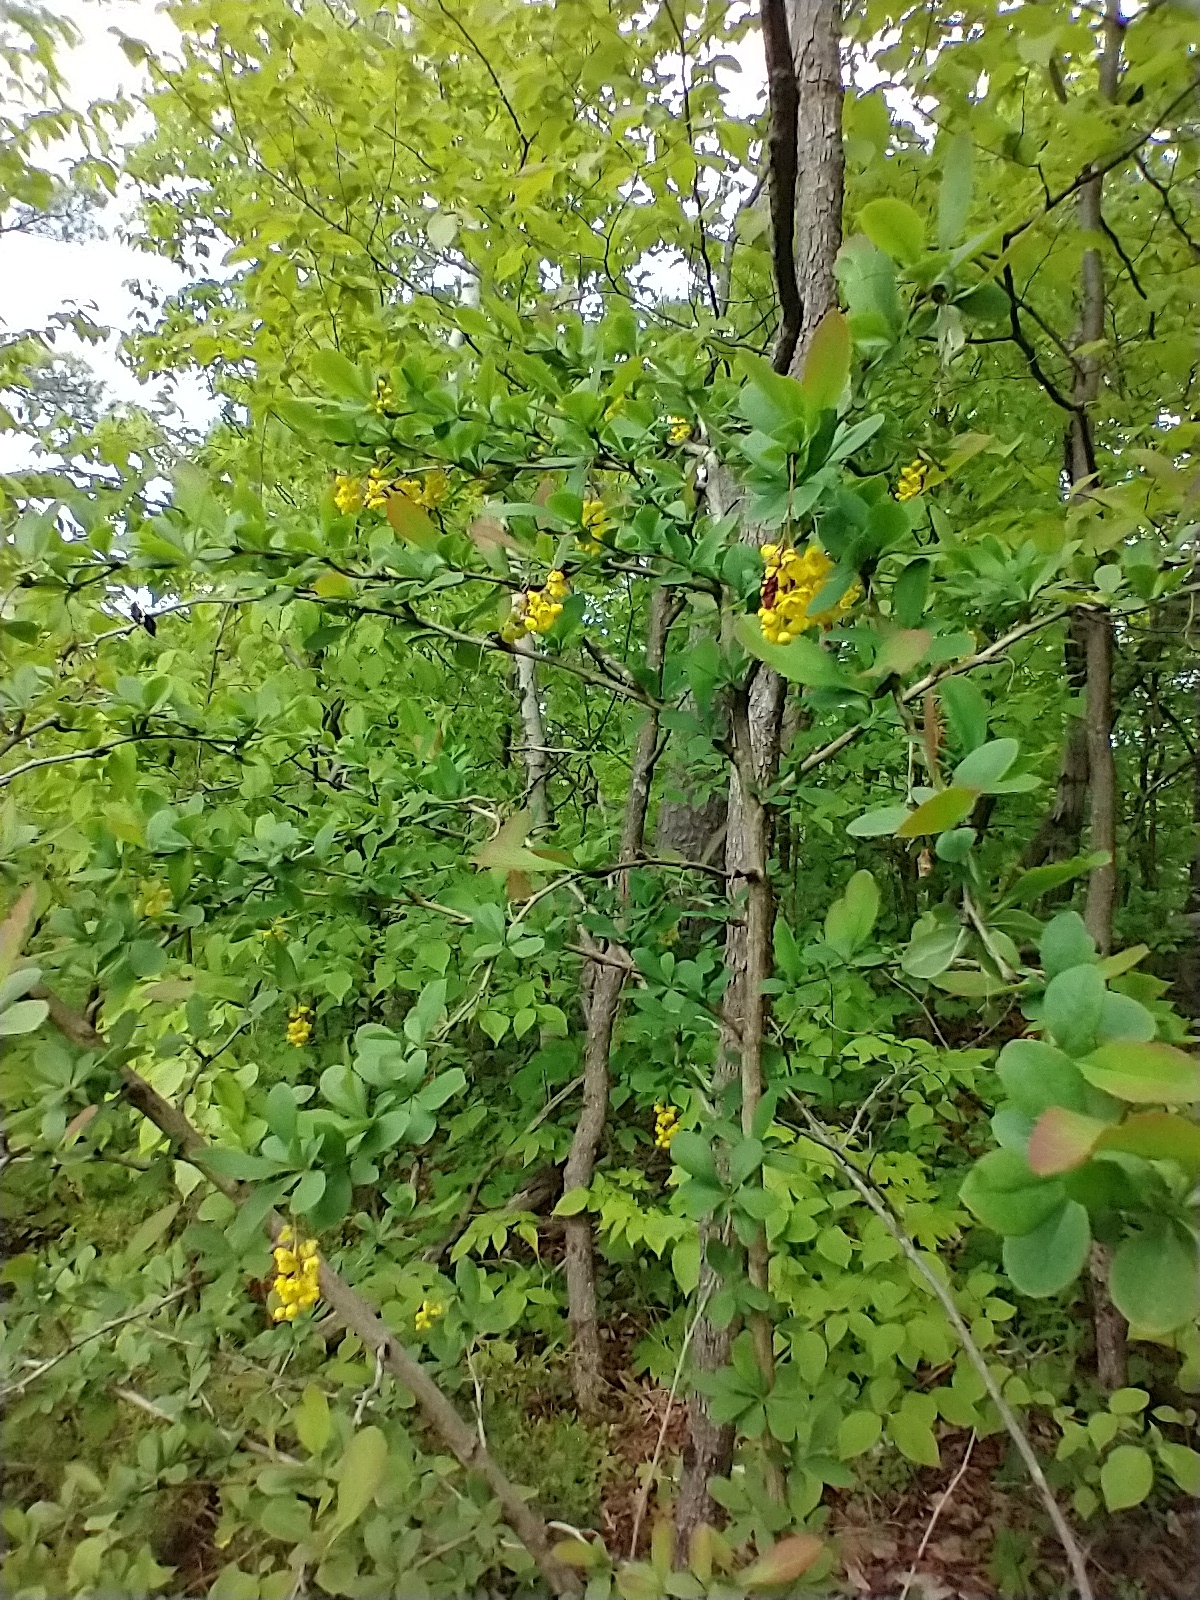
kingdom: Plantae
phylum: Tracheophyta
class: Magnoliopsida
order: Ranunculales
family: Berberidaceae
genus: Berberis
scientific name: Berberis vulgaris
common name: Barberry
